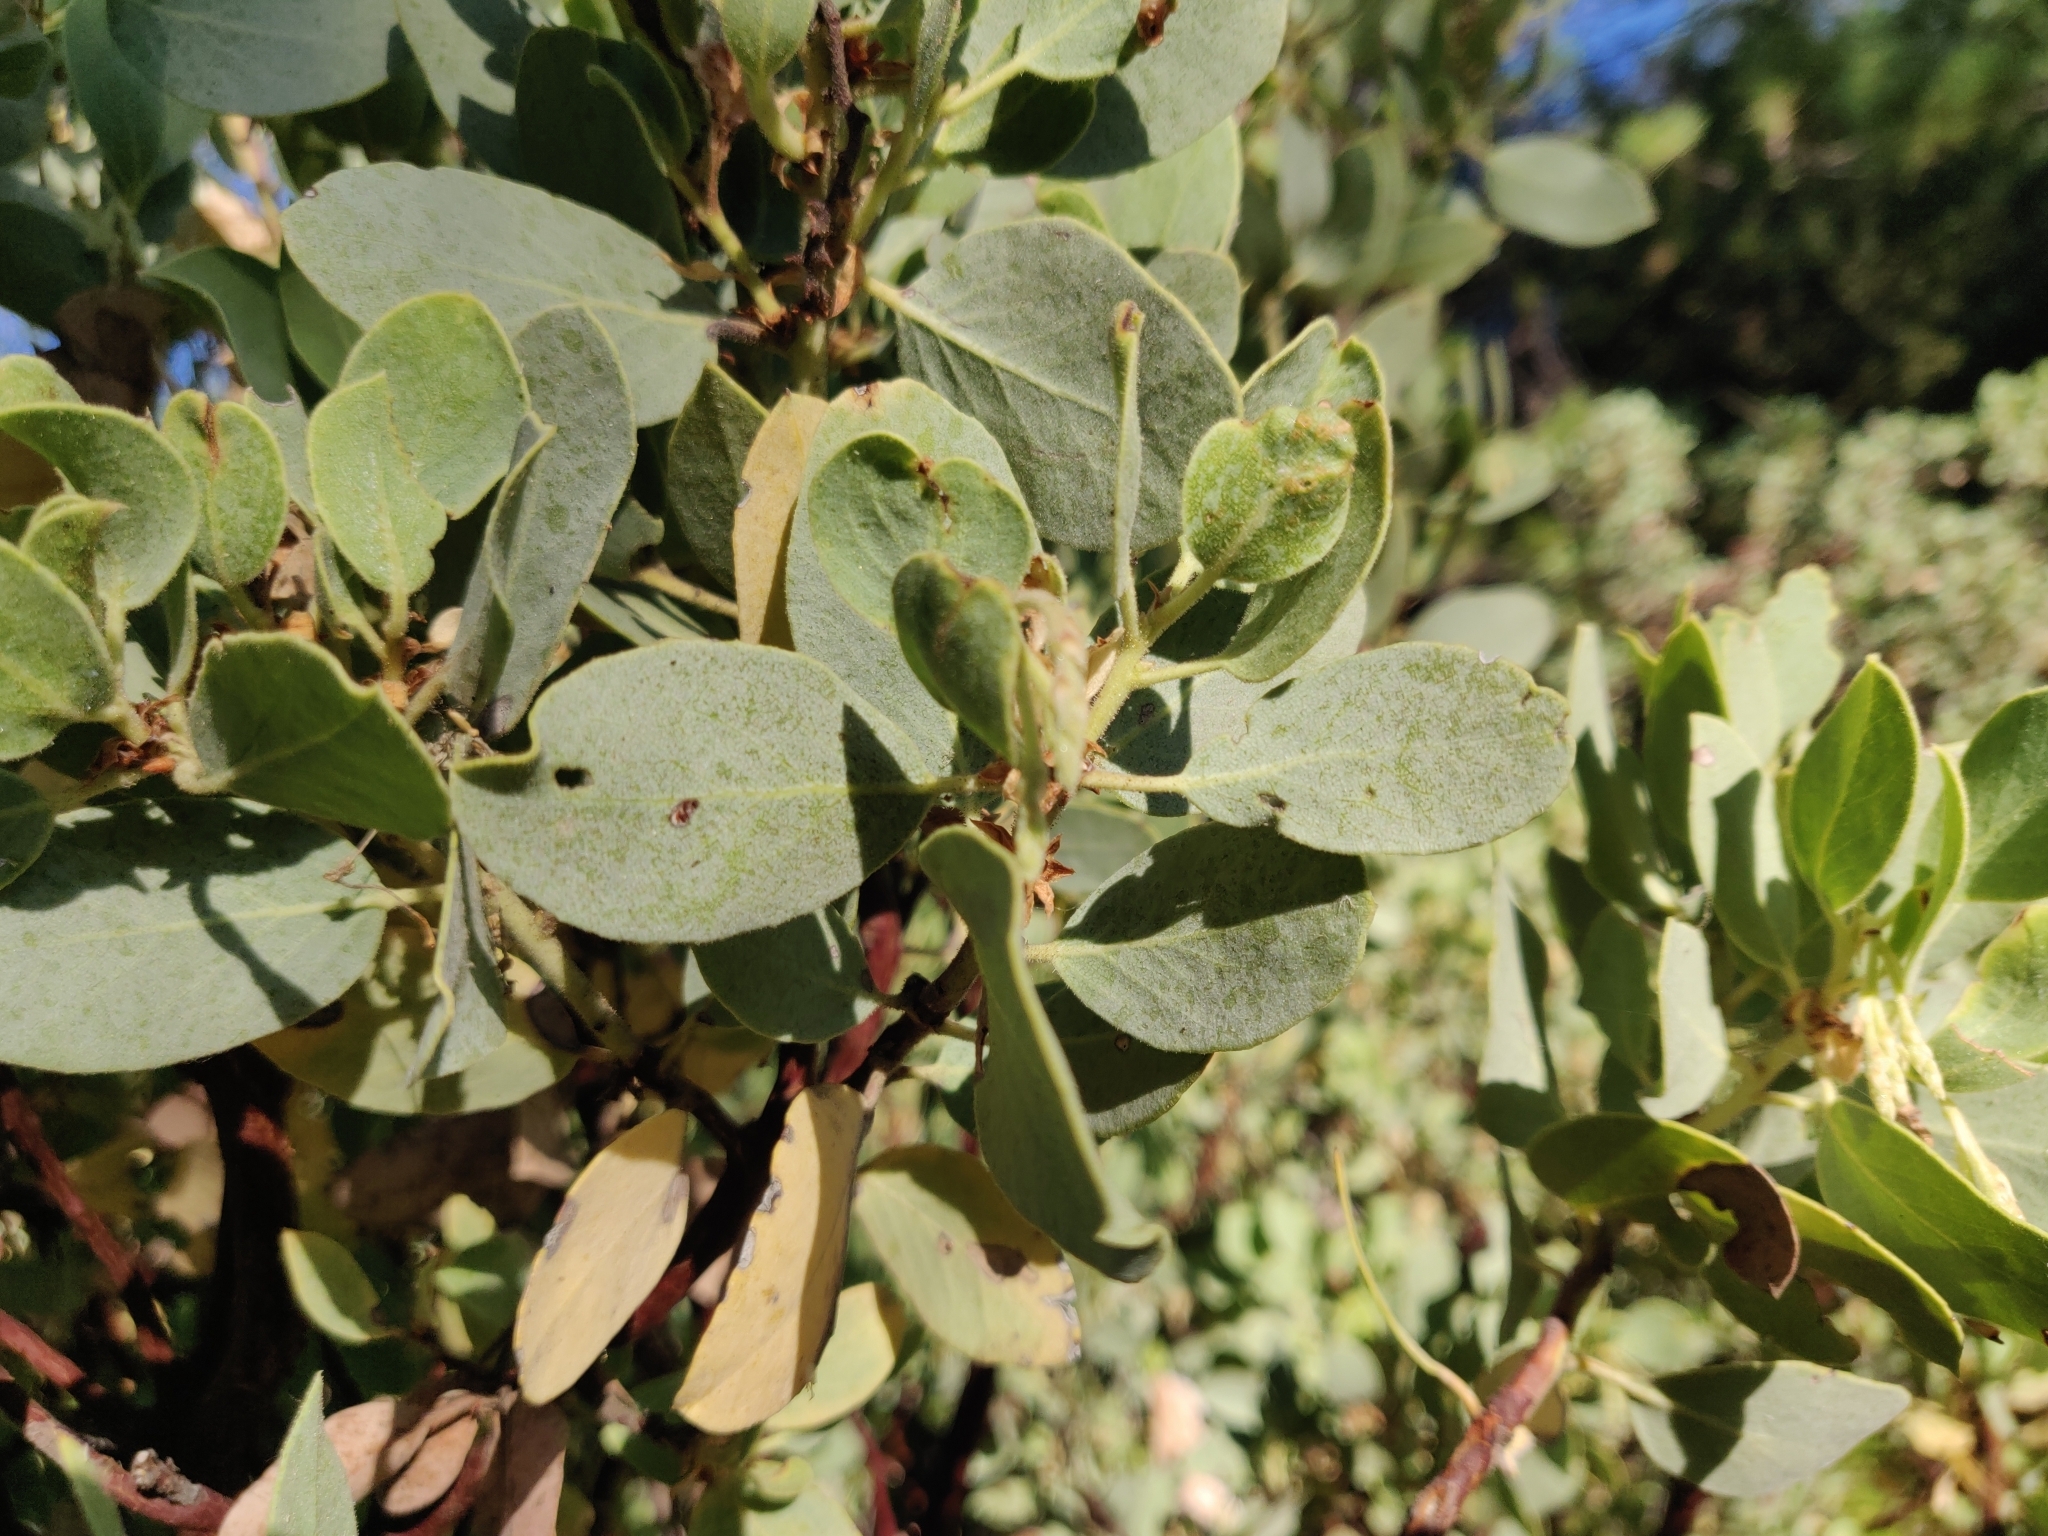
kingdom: Plantae
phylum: Tracheophyta
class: Magnoliopsida
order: Ericales
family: Ericaceae
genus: Arctostaphylos
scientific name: Arctostaphylos viscida
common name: White-leaf manzanita
